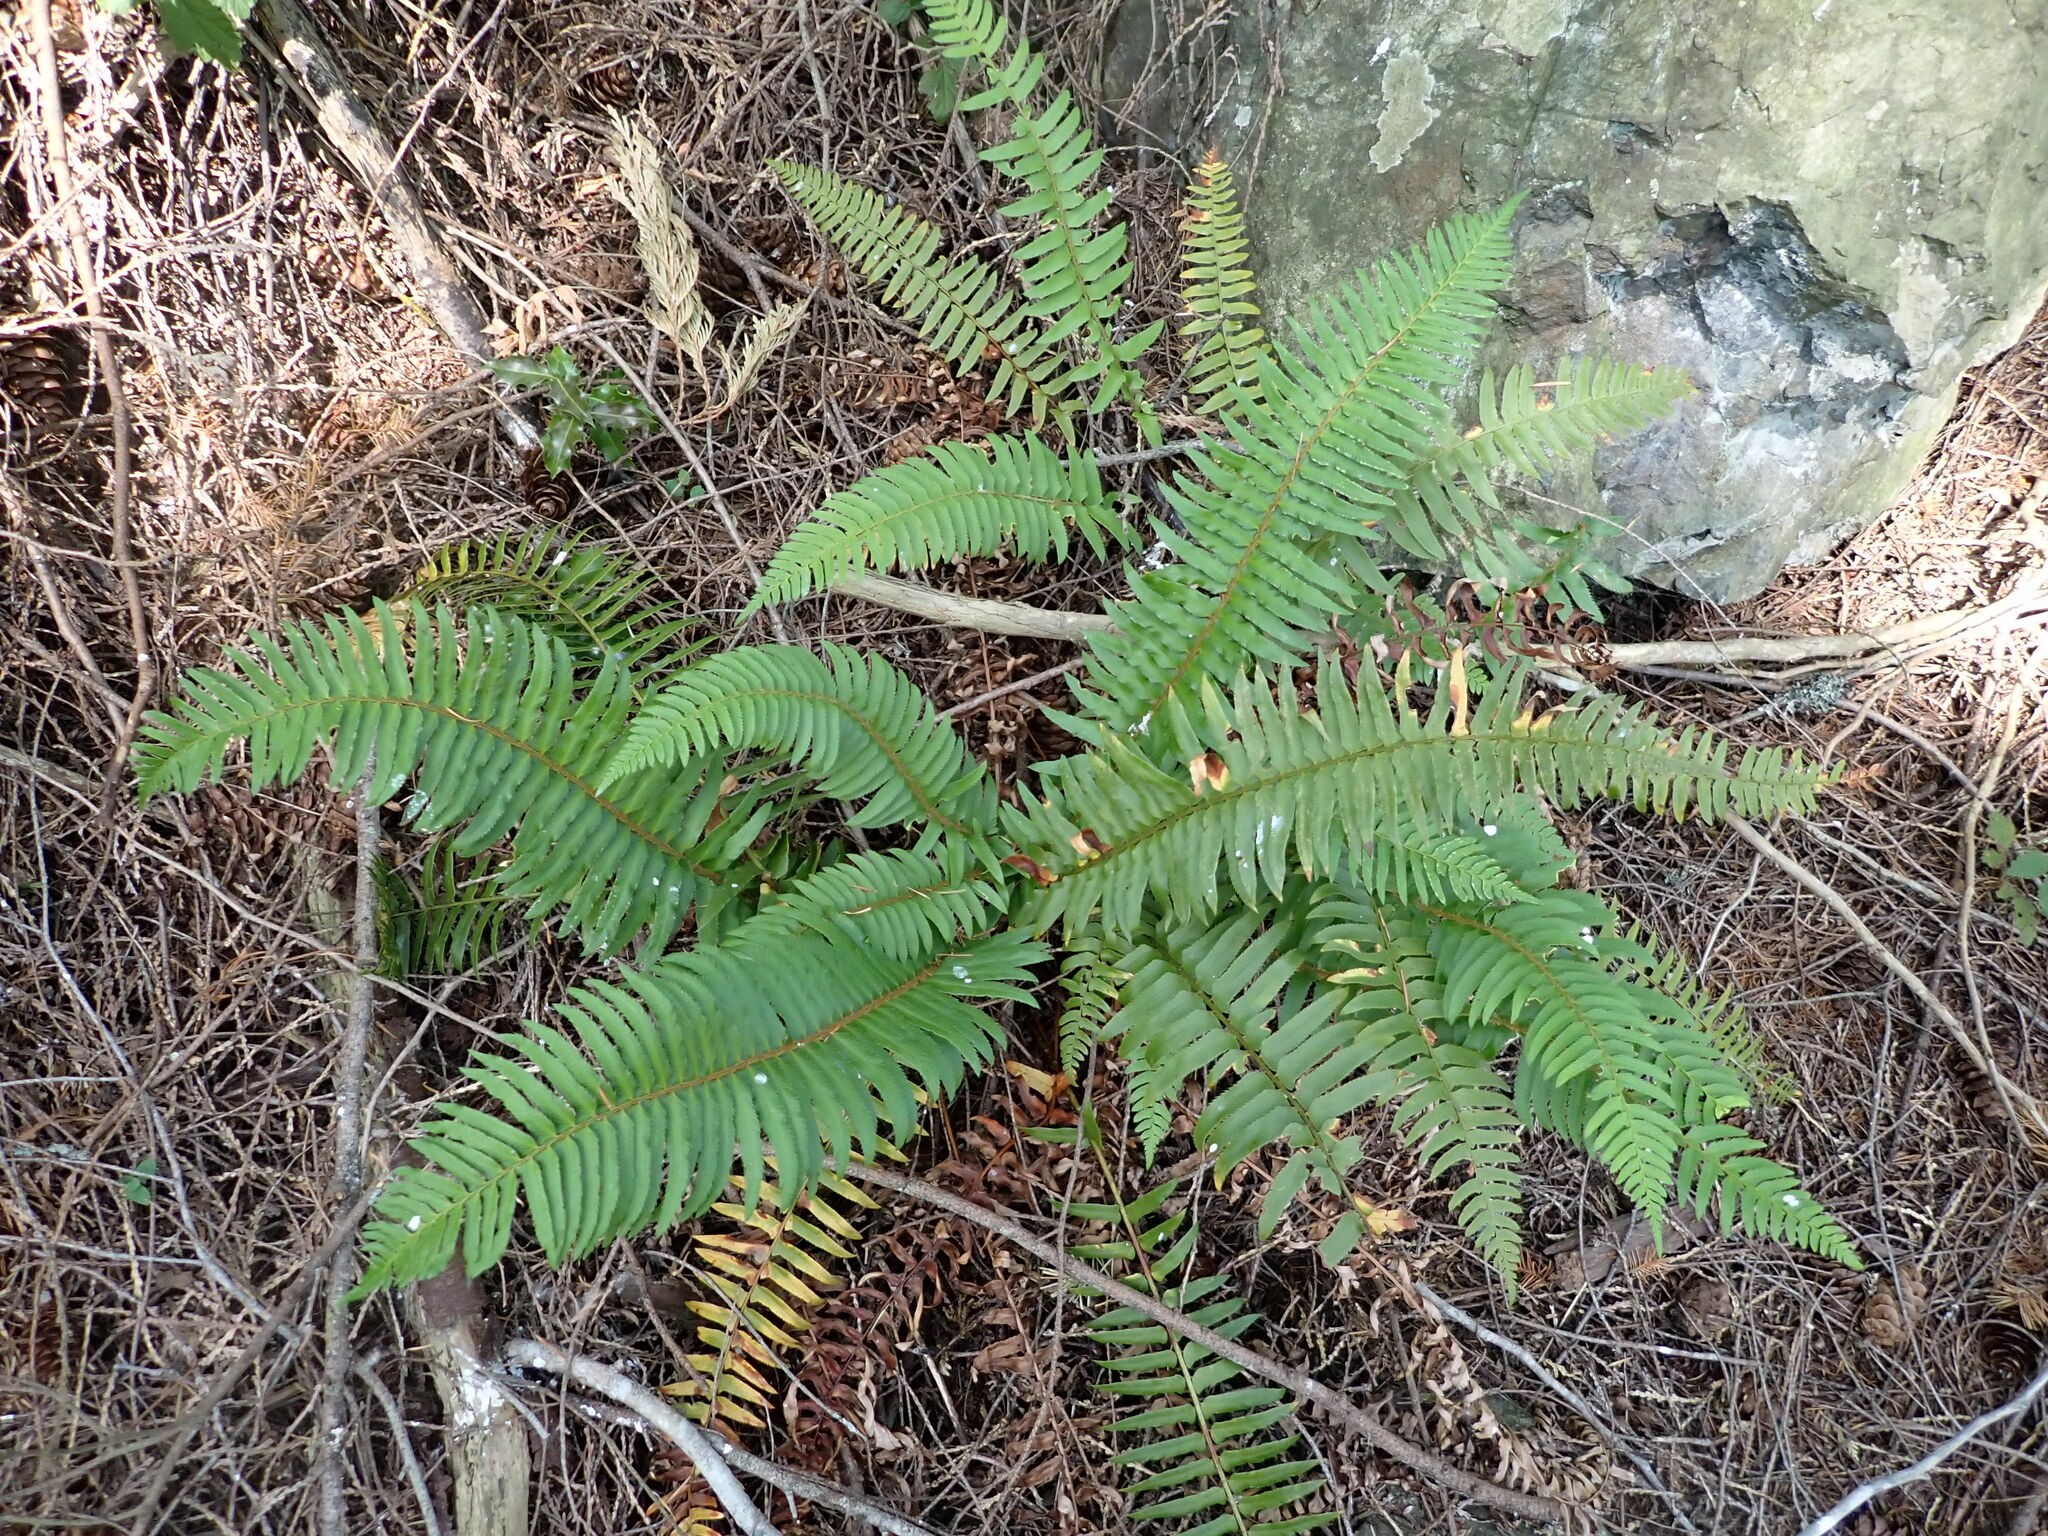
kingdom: Plantae
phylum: Tracheophyta
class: Polypodiopsida
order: Polypodiales
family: Dryopteridaceae
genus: Polystichum
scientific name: Polystichum munitum
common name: Western sword-fern
